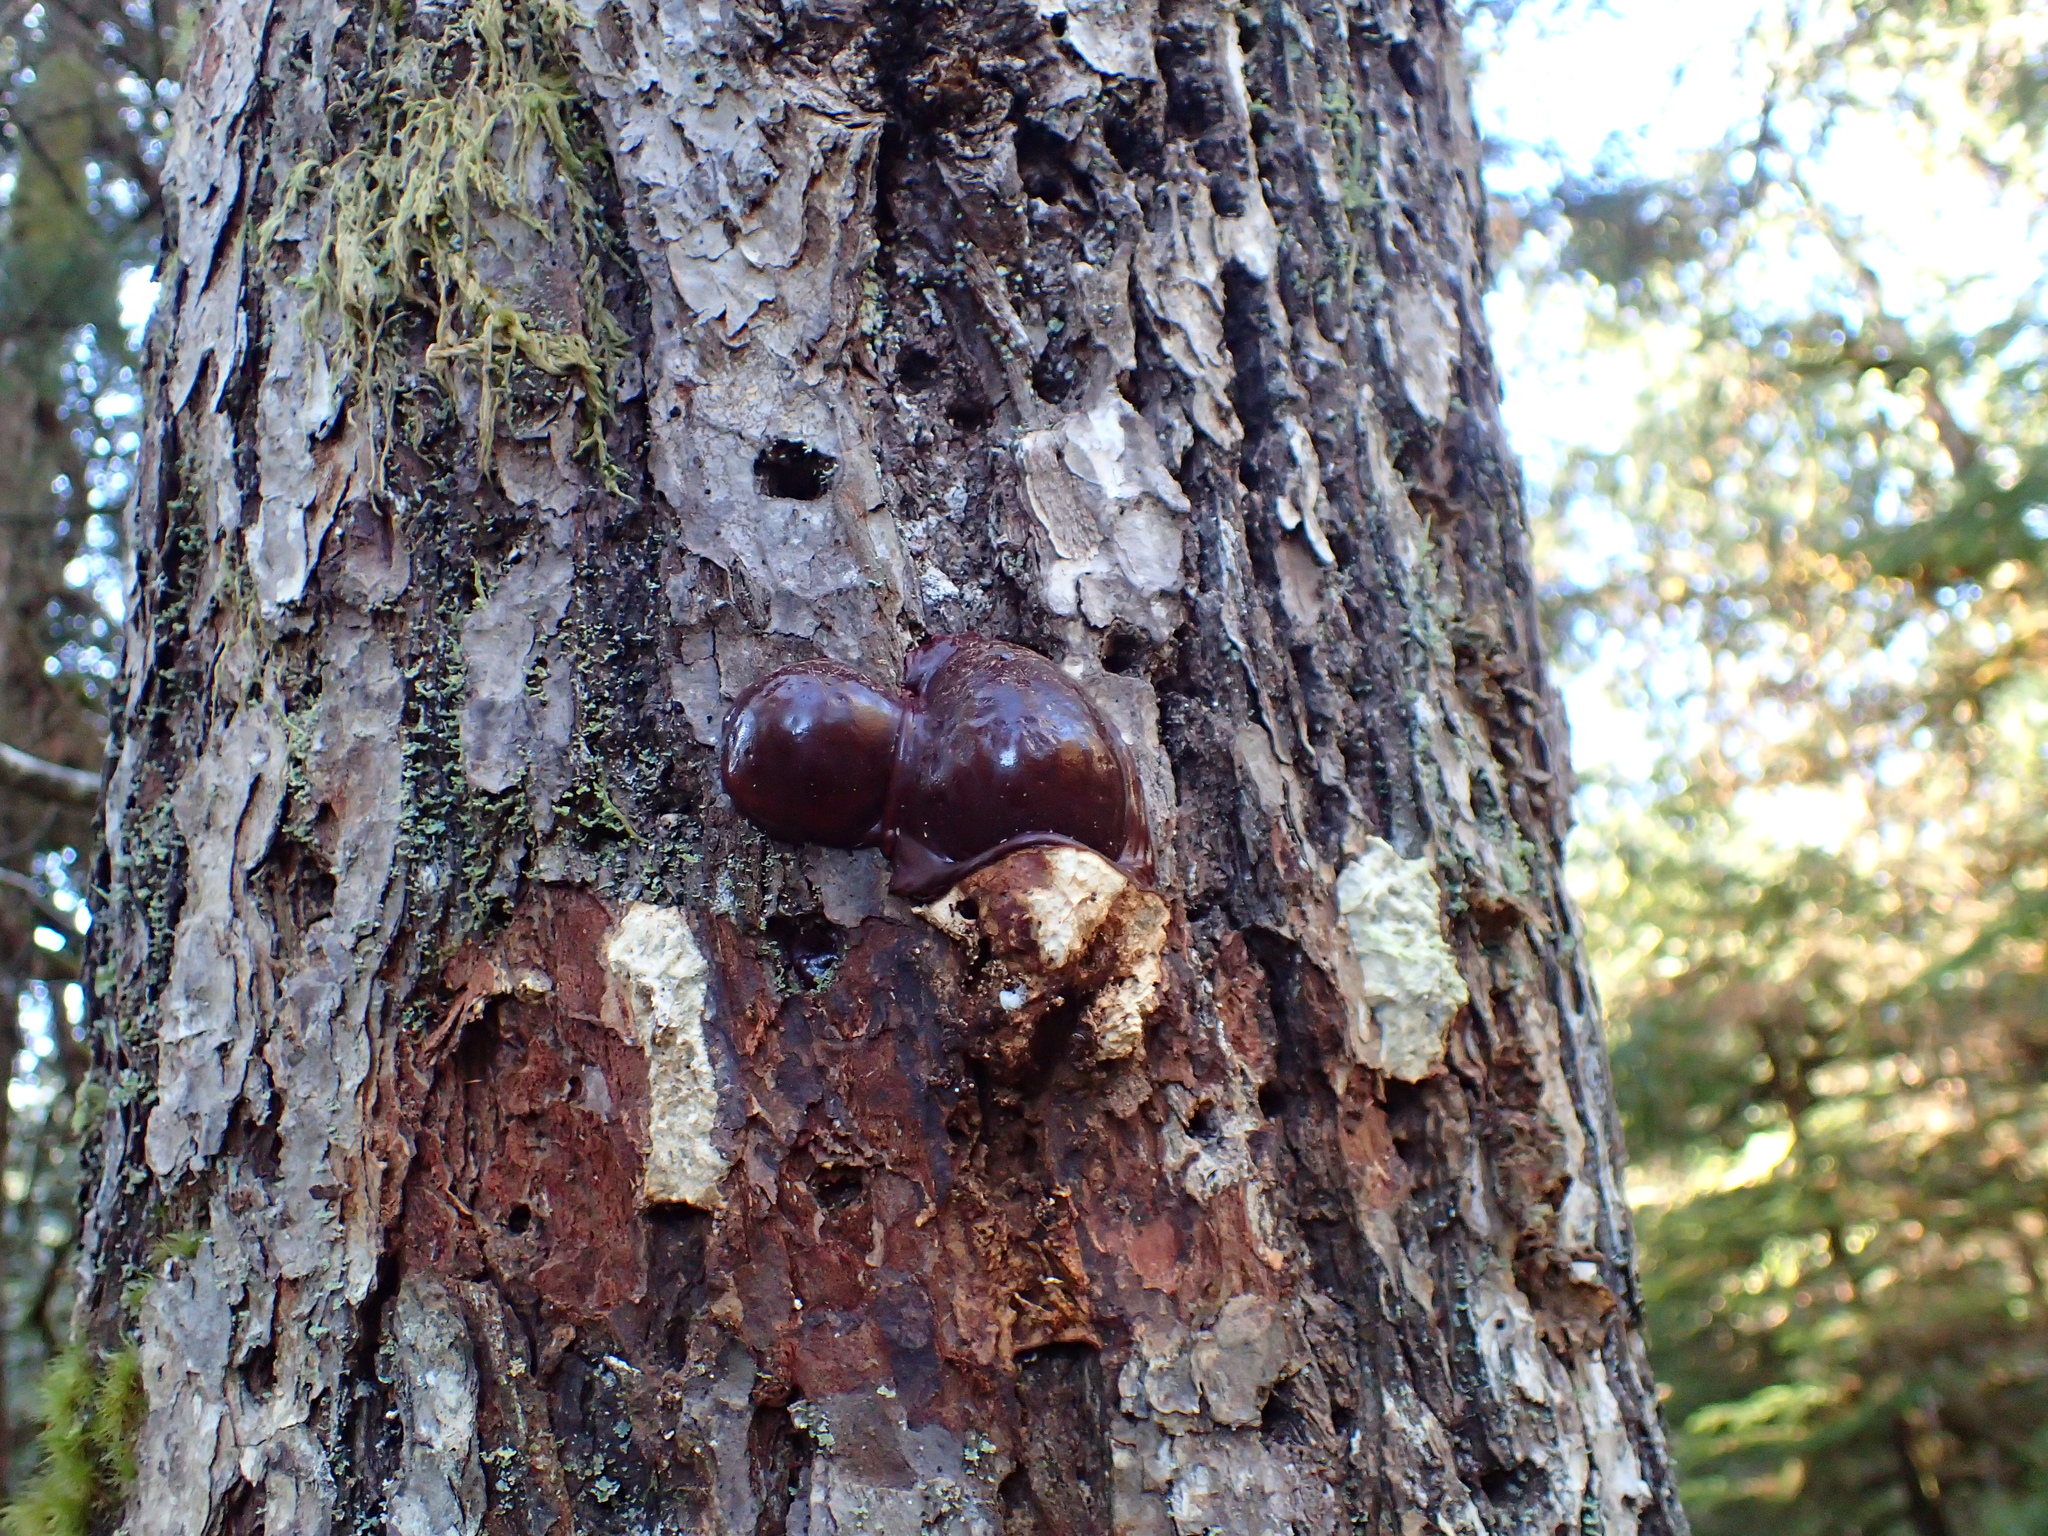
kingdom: Fungi
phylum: Basidiomycota
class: Agaricomycetes
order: Polyporales
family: Polyporaceae
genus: Ganoderma
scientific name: Ganoderma oregonense
